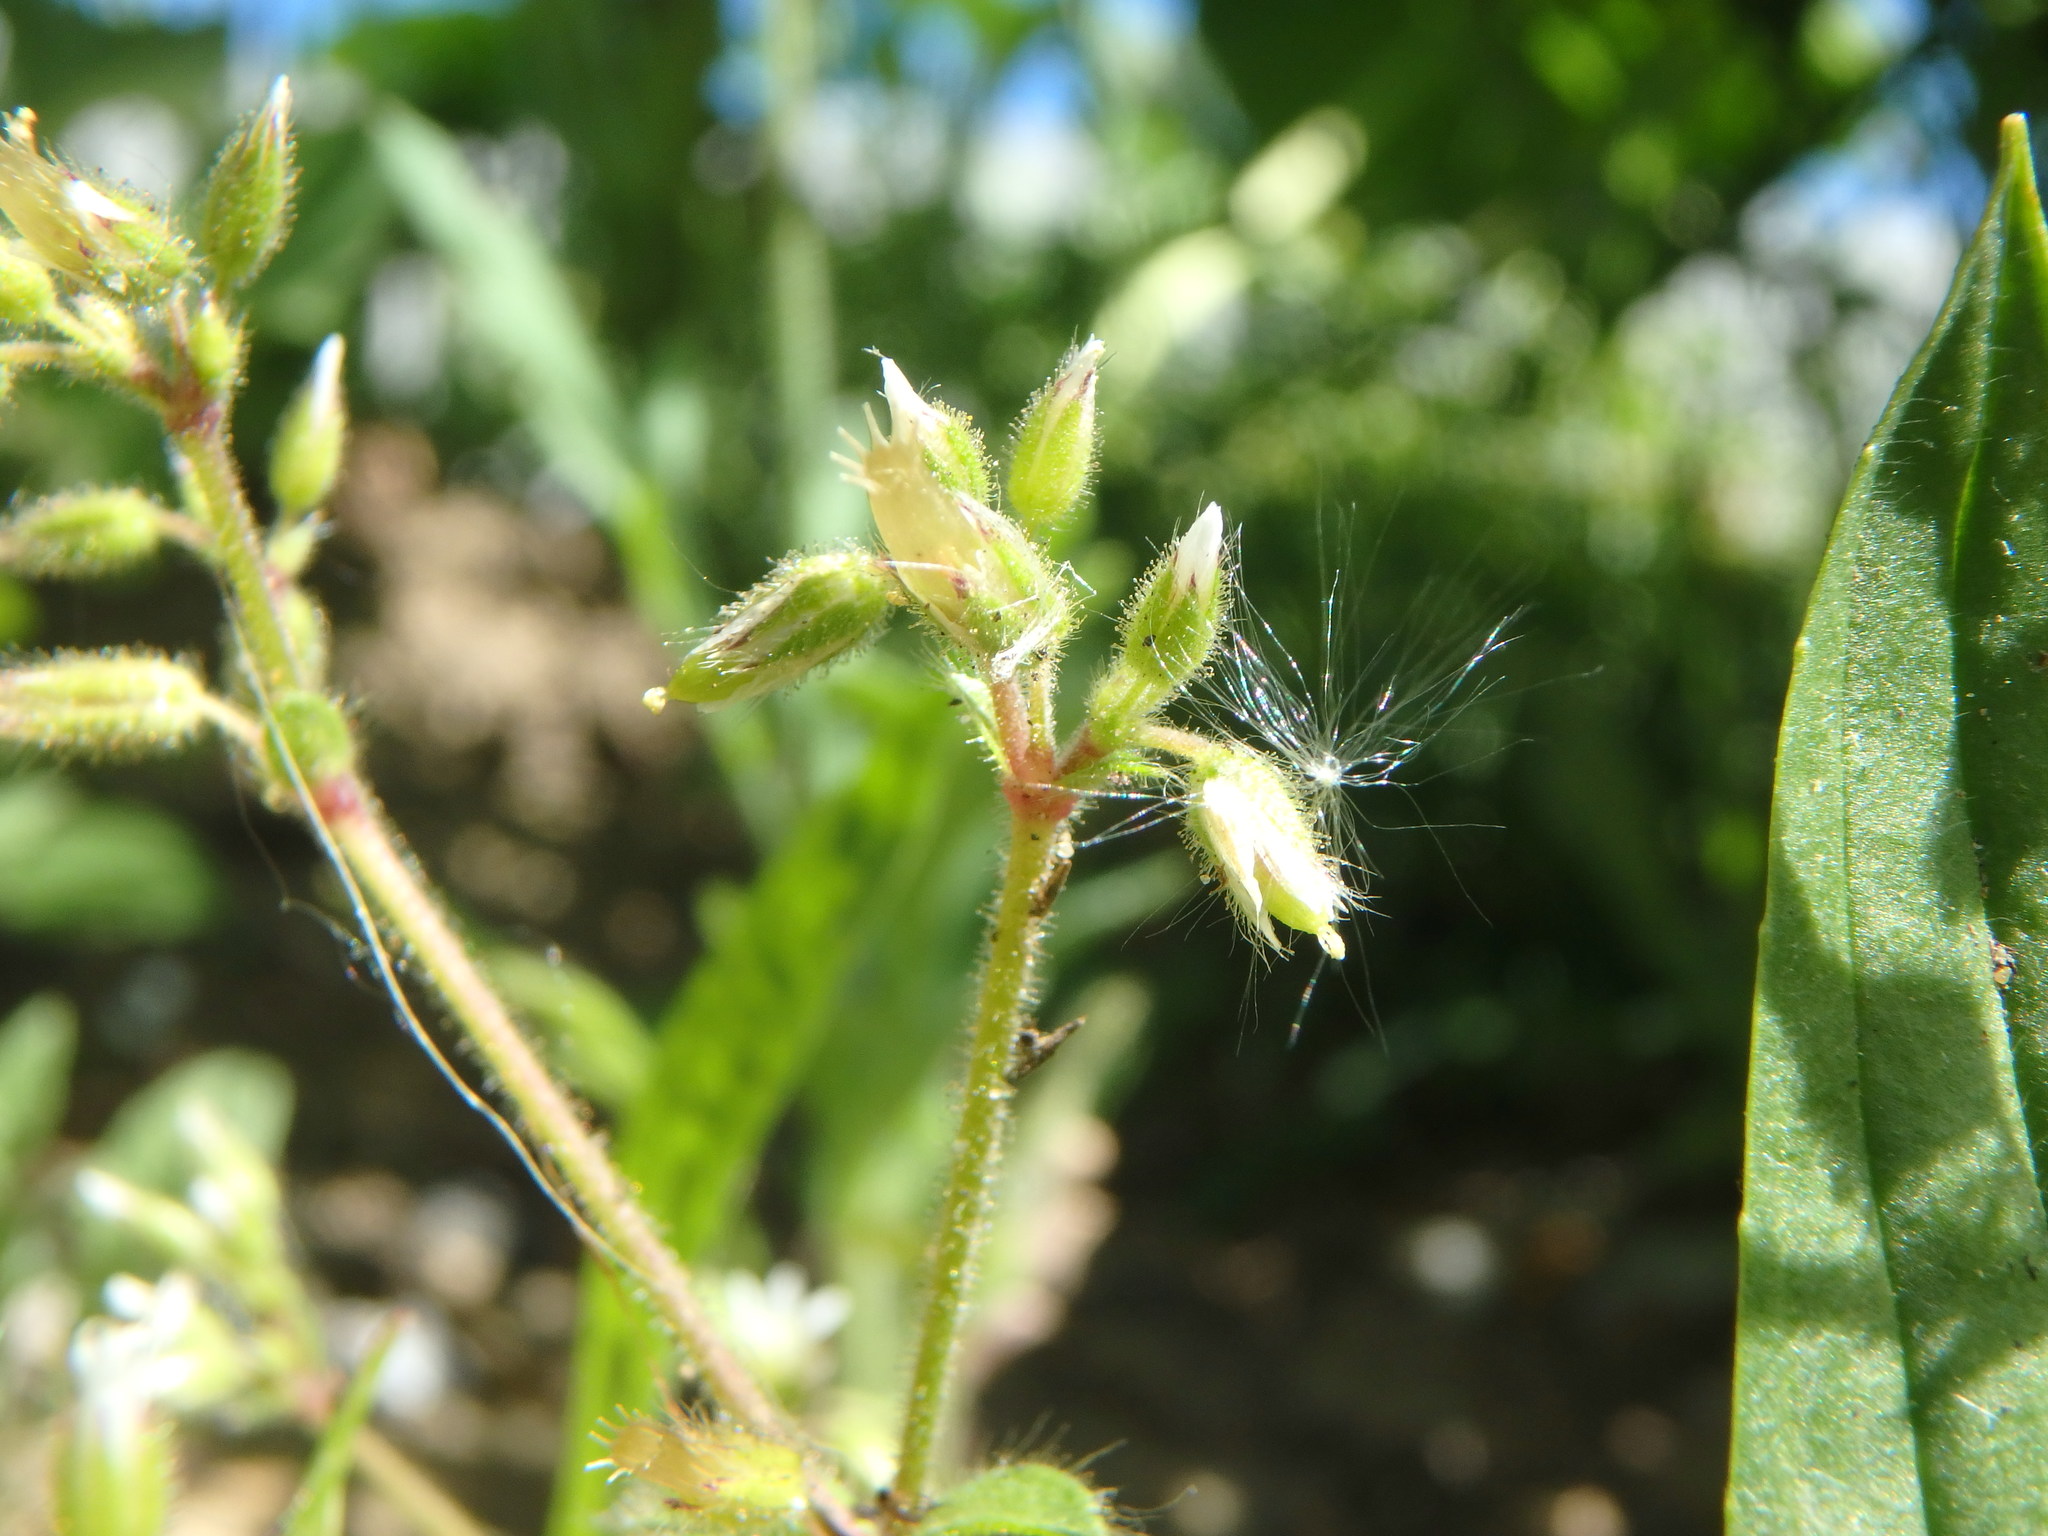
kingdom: Plantae
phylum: Tracheophyta
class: Magnoliopsida
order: Caryophyllales
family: Caryophyllaceae
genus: Cerastium
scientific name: Cerastium glomeratum
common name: Sticky chickweed
